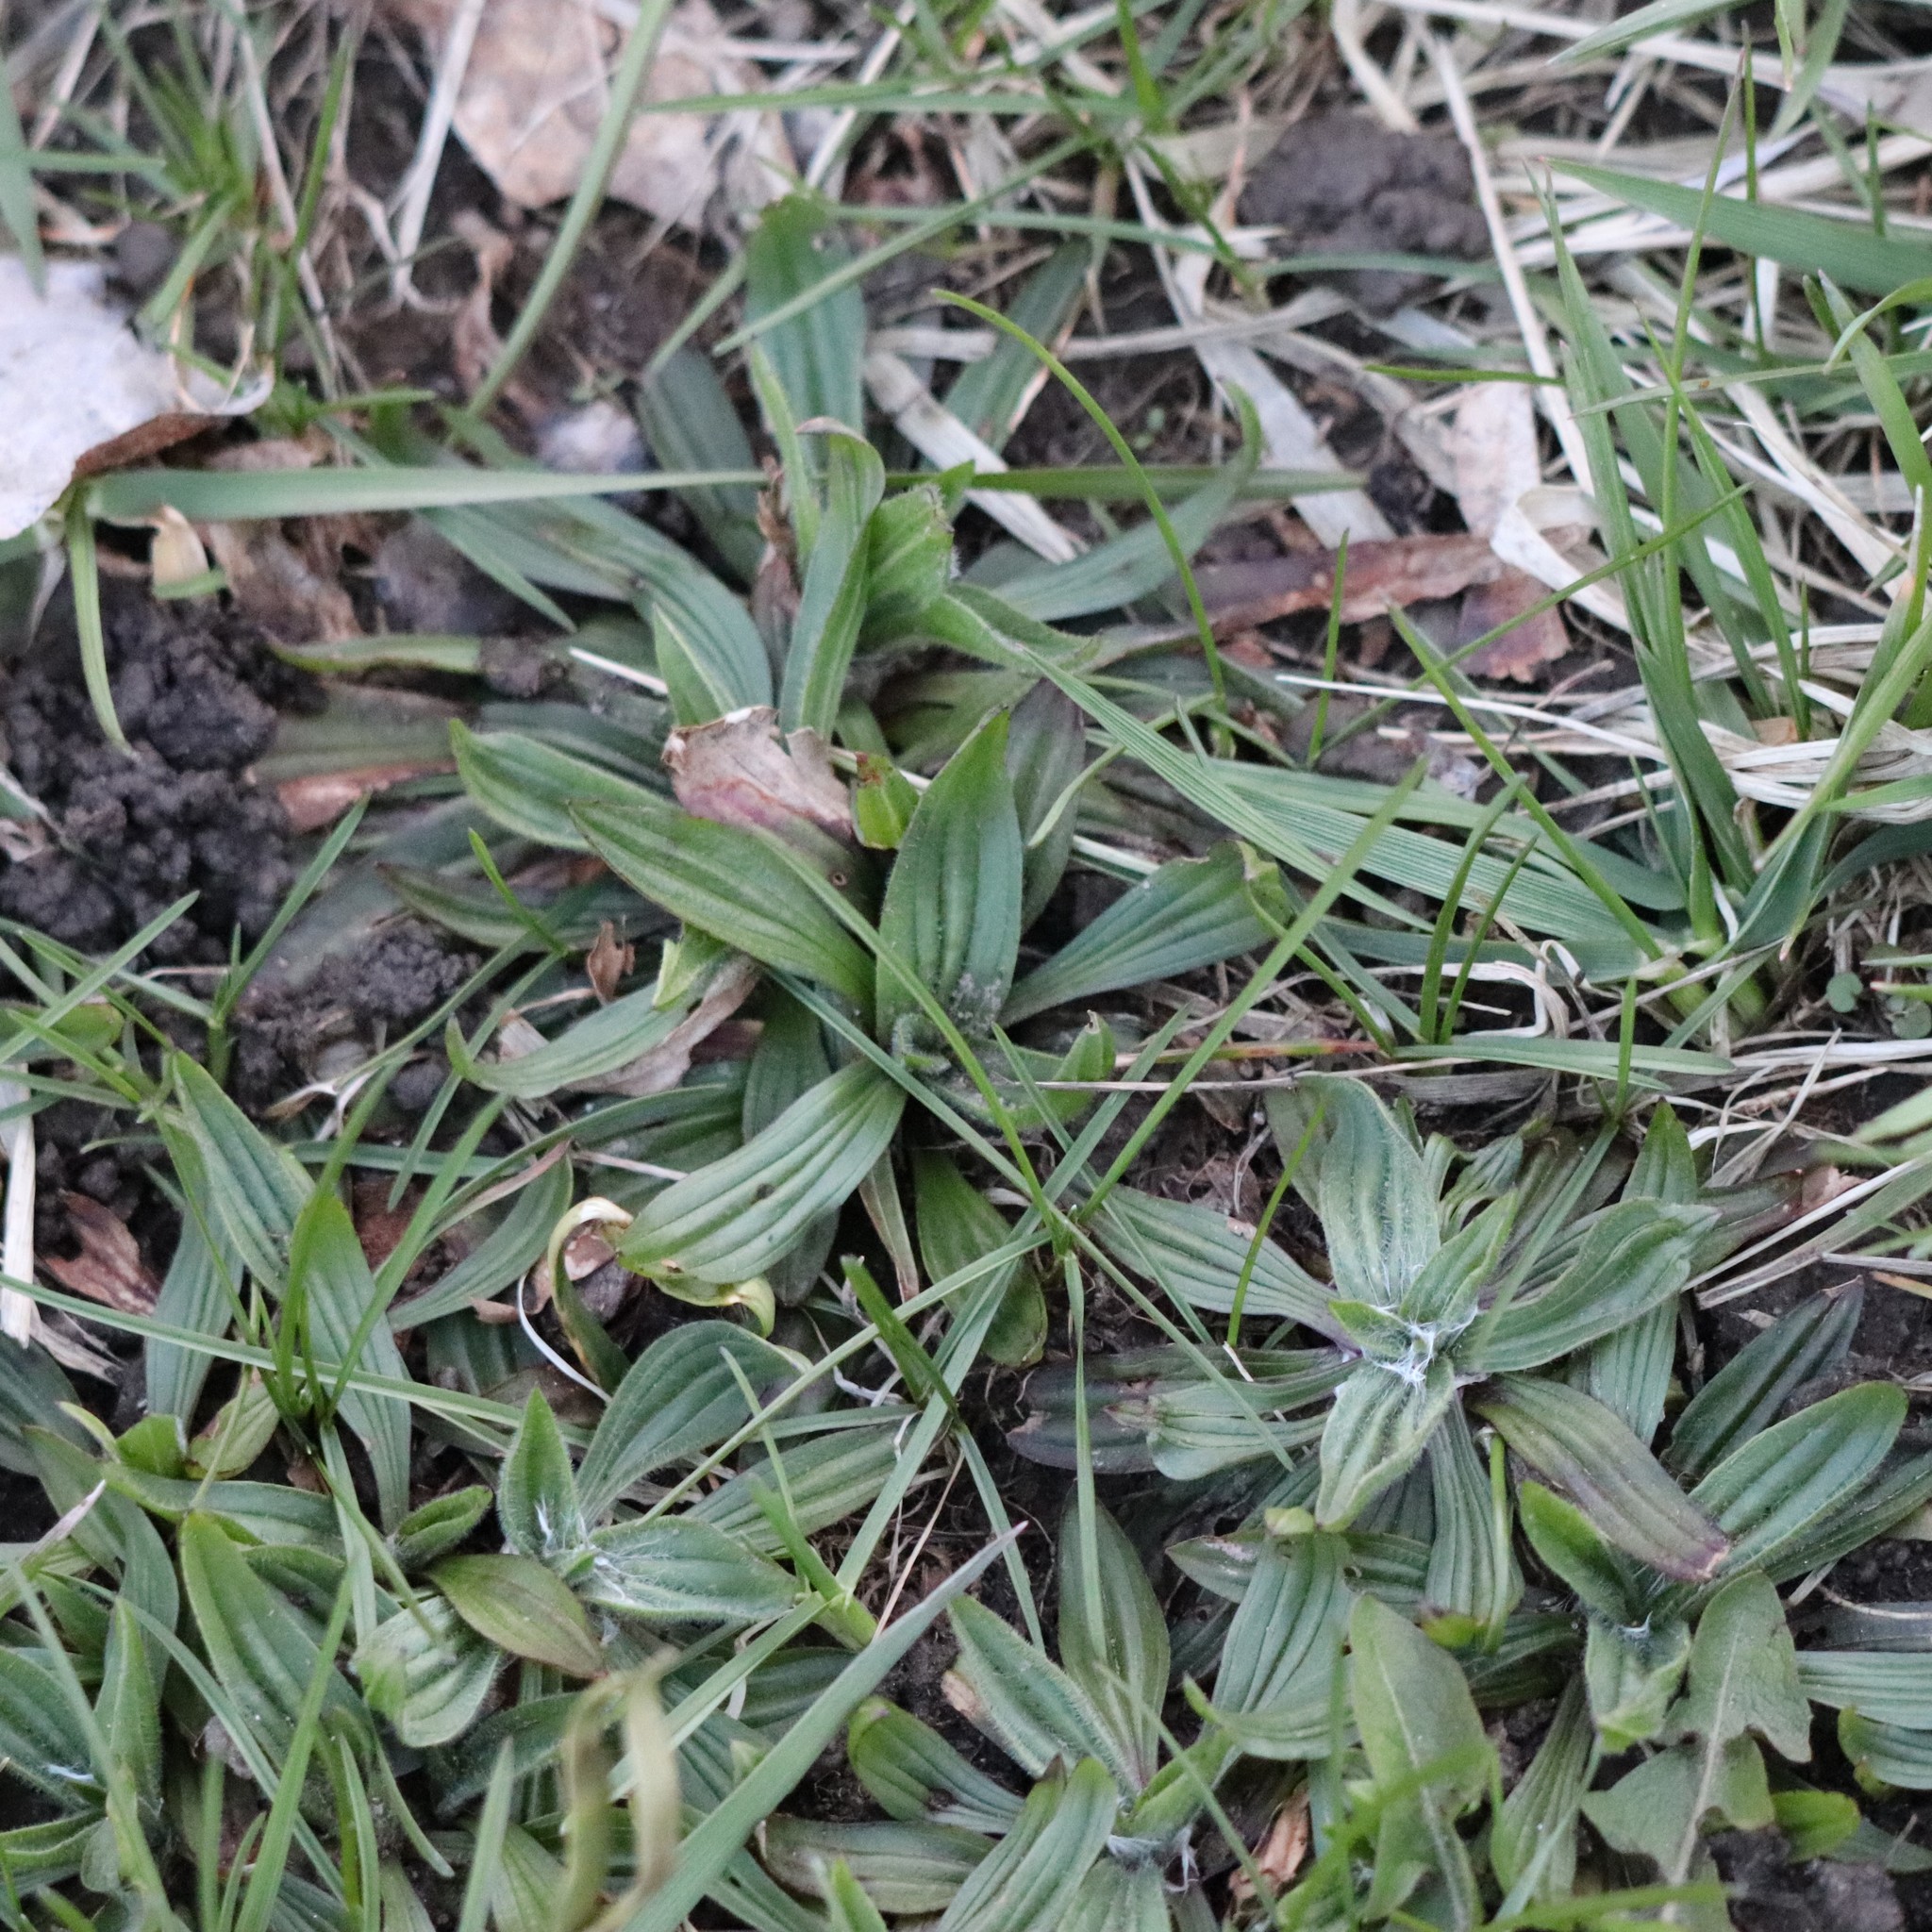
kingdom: Plantae
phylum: Tracheophyta
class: Magnoliopsida
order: Lamiales
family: Plantaginaceae
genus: Plantago
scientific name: Plantago lanceolata
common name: Ribwort plantain
